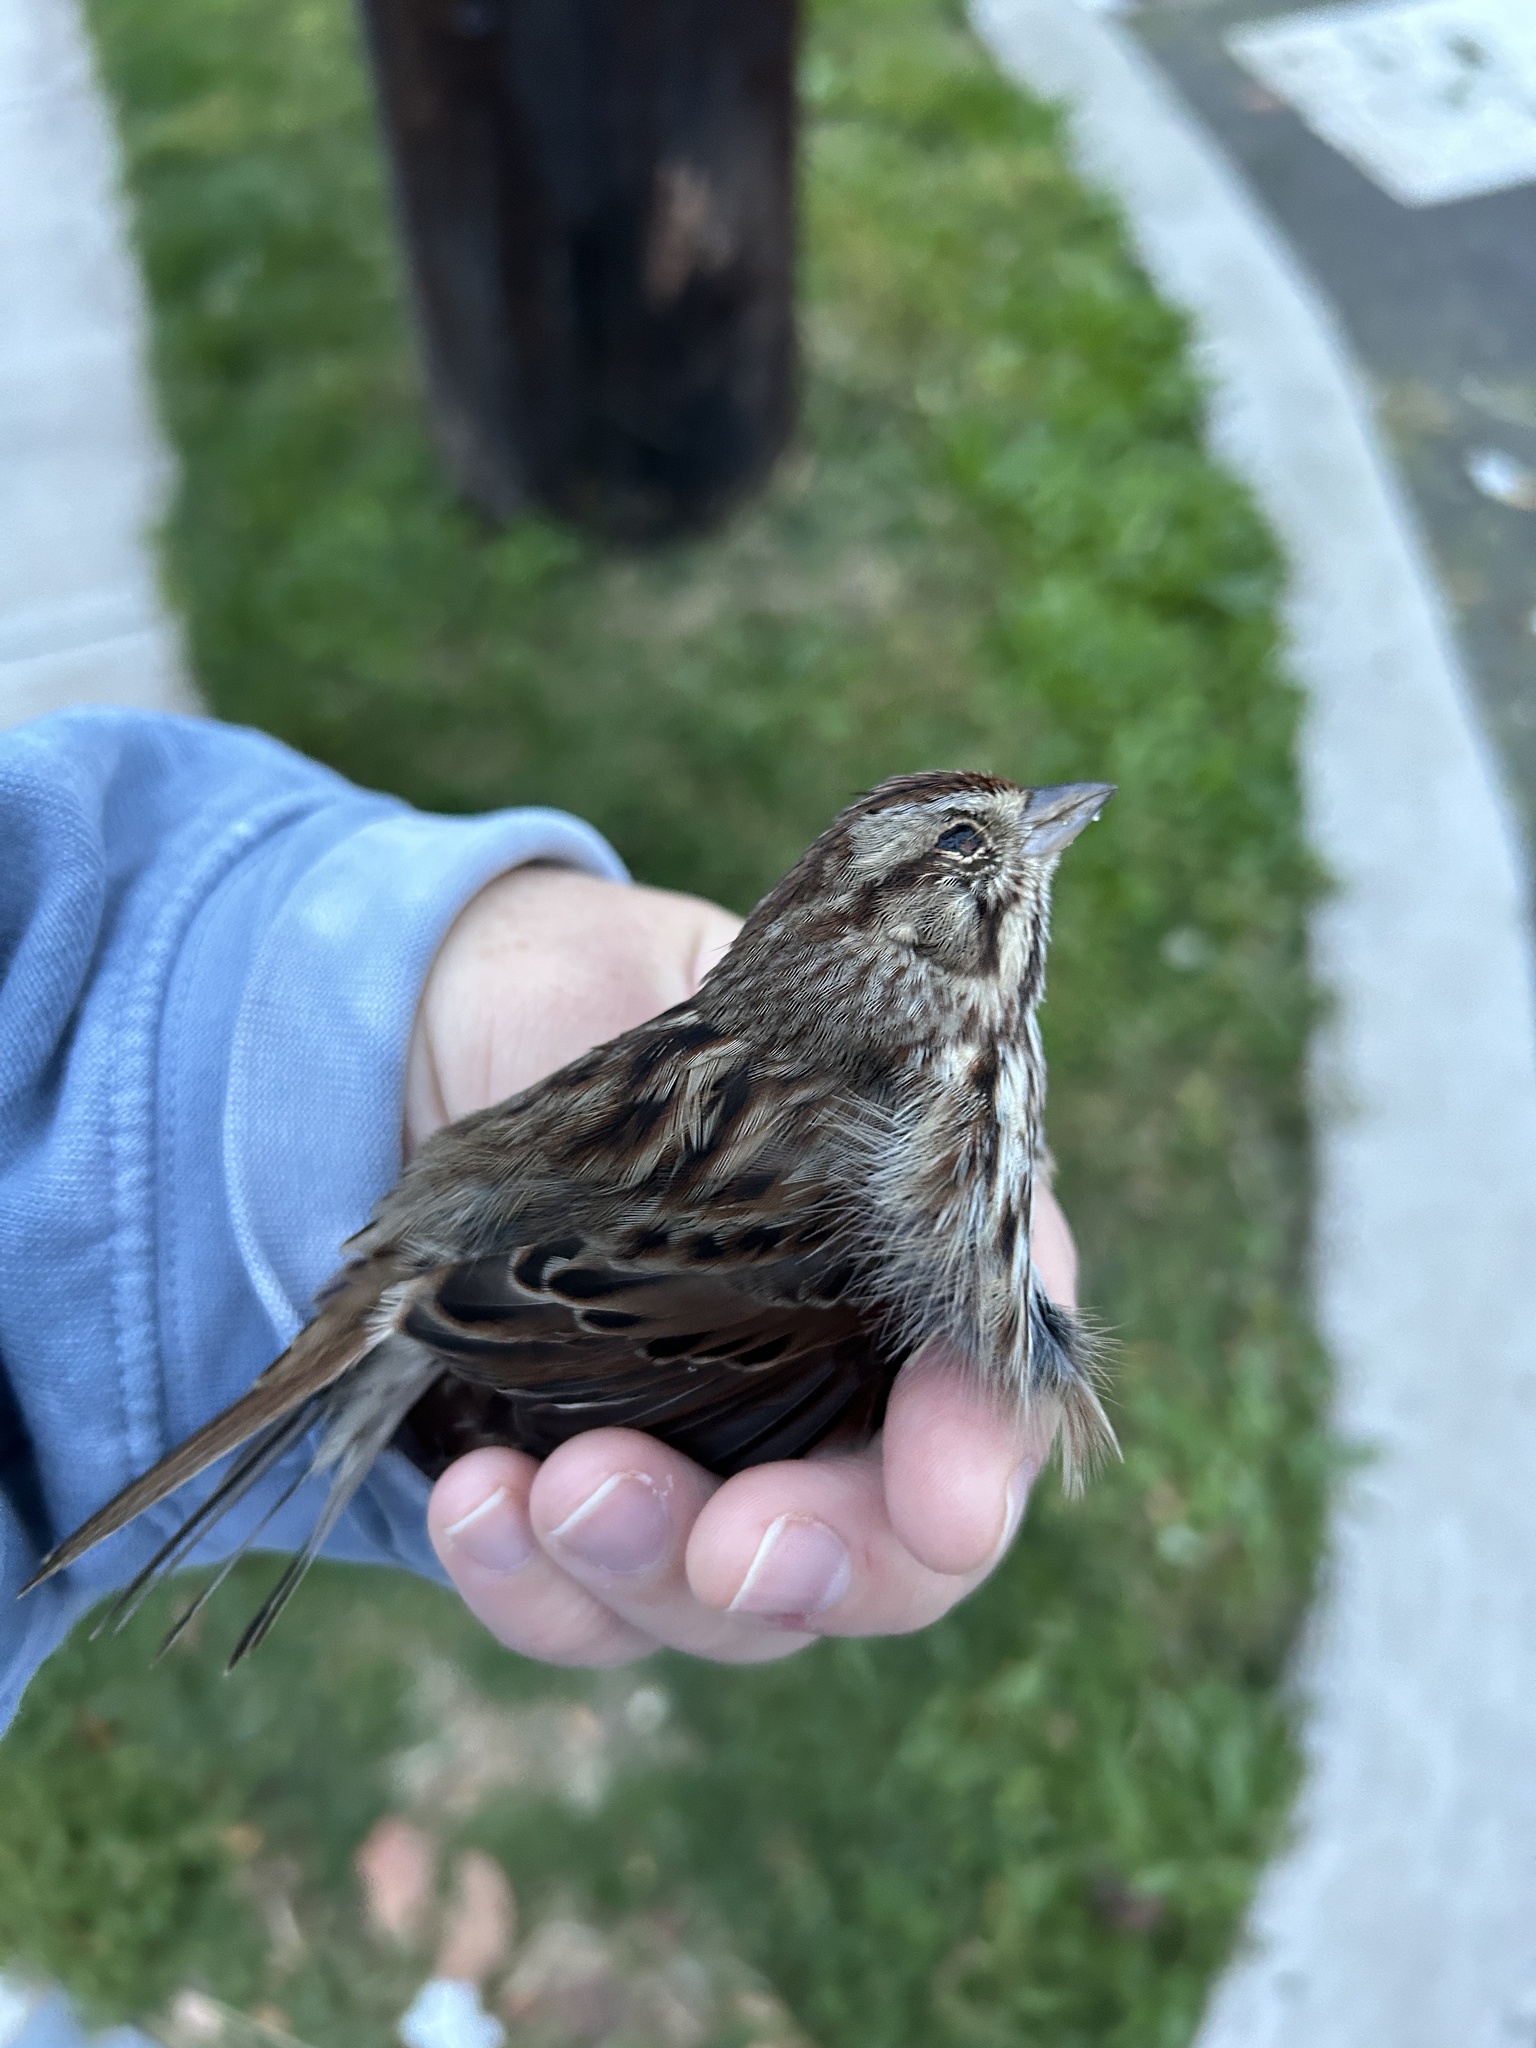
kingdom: Animalia
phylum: Chordata
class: Aves
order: Passeriformes
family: Passerellidae
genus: Melospiza
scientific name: Melospiza melodia
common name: Song sparrow
